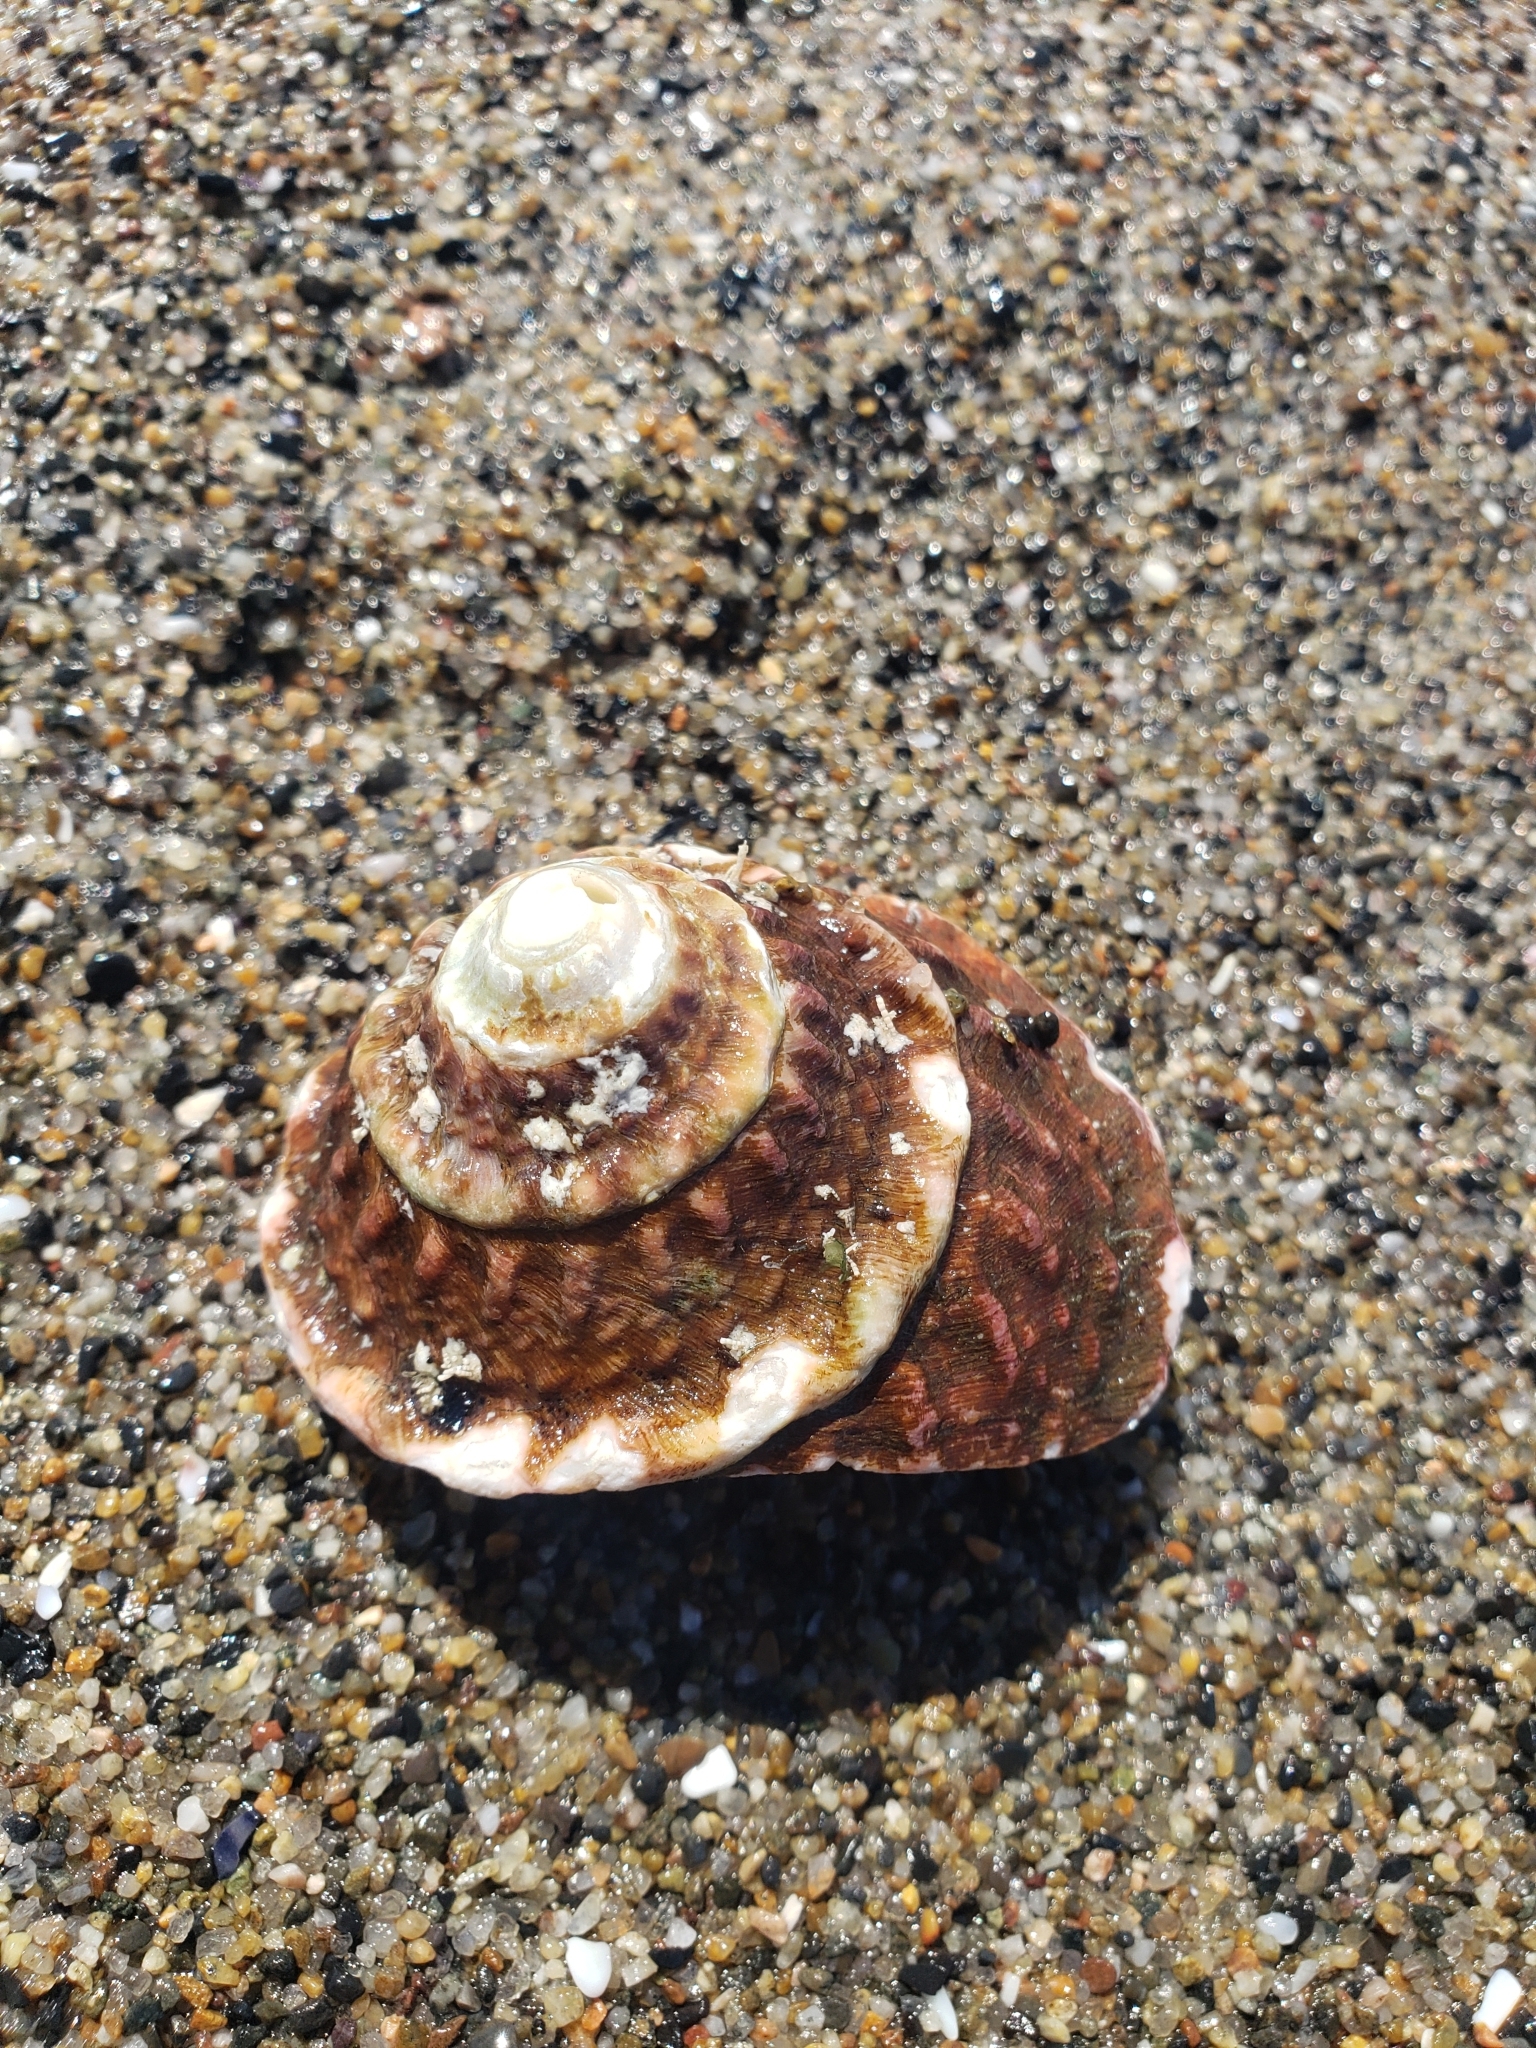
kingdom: Animalia
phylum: Mollusca
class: Gastropoda
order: Trochida
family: Turbinidae
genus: Megastraea
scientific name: Megastraea undosa
